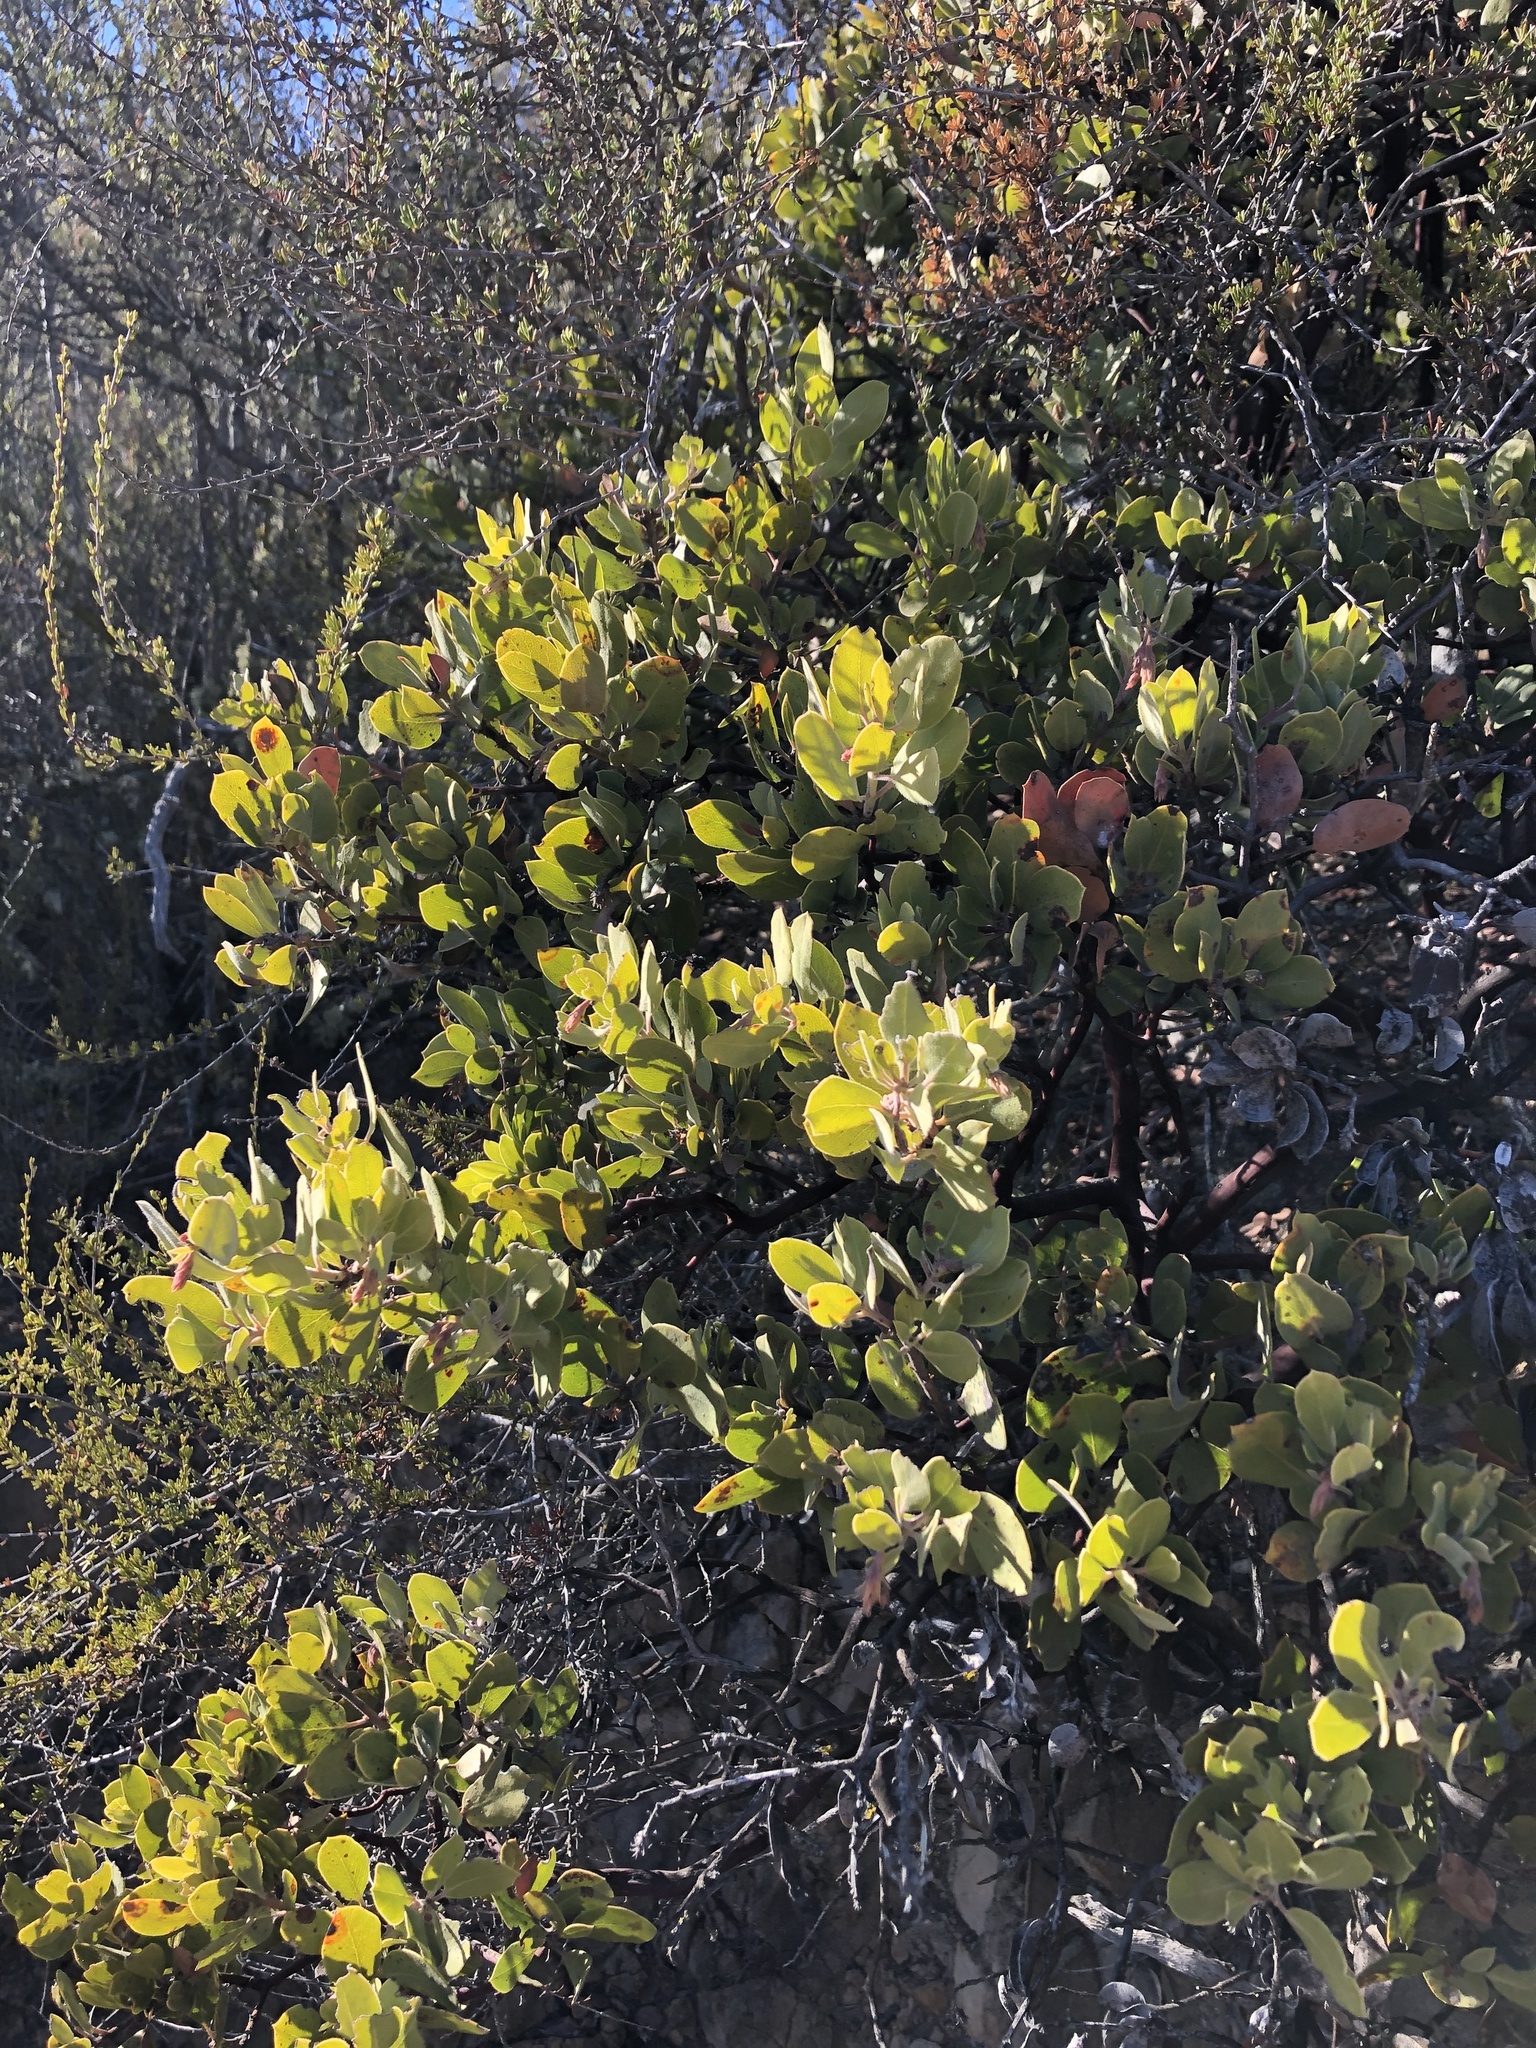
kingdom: Plantae
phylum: Tracheophyta
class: Magnoliopsida
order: Ericales
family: Ericaceae
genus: Arctostaphylos
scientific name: Arctostaphylos glandulosa
